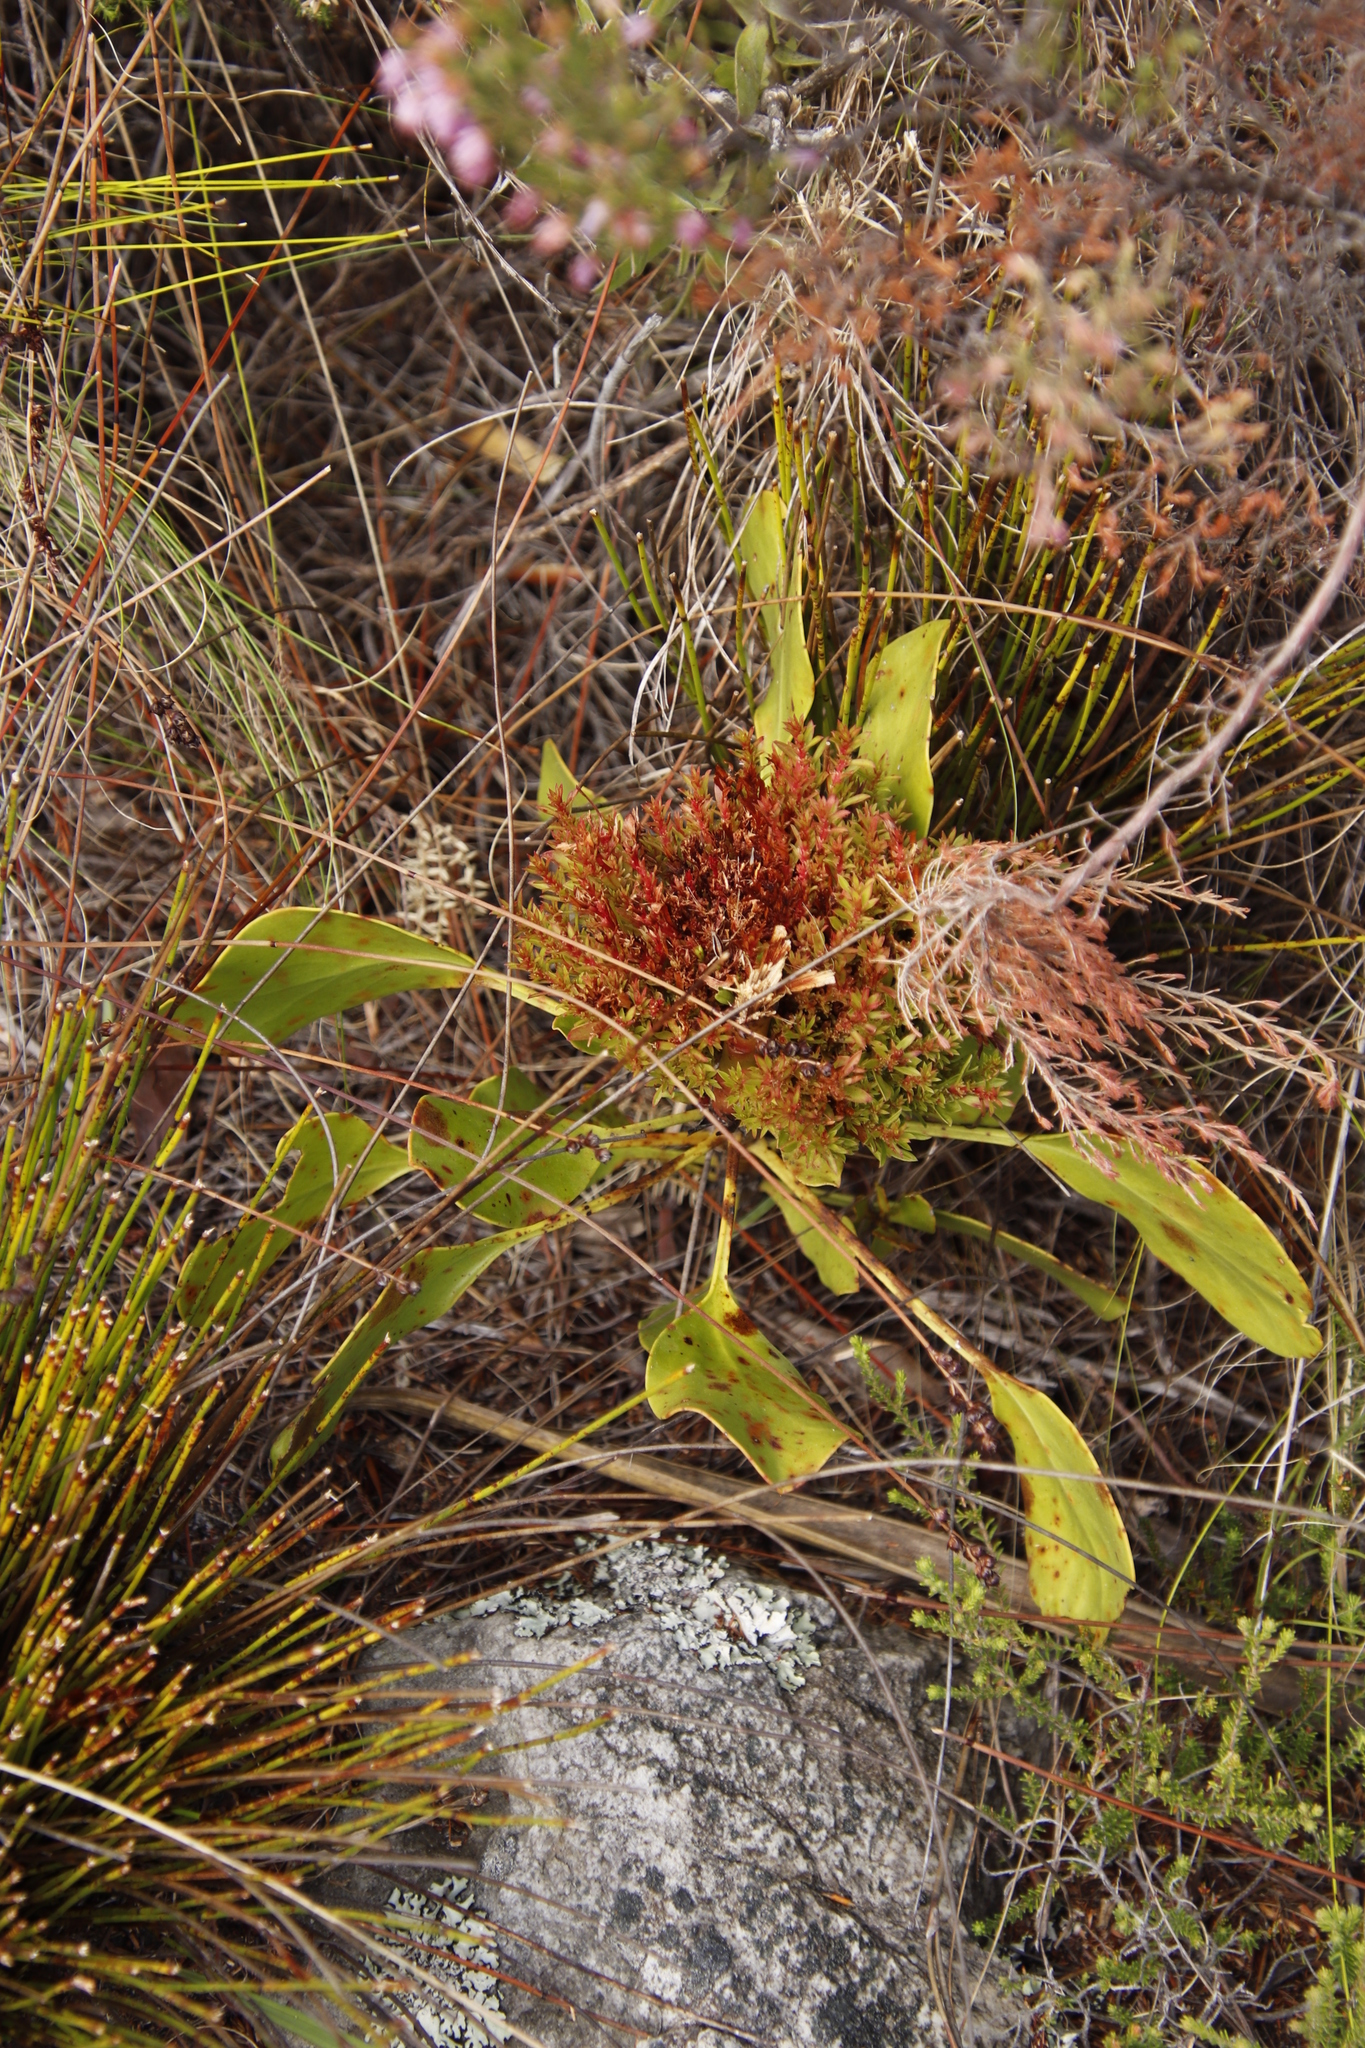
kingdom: Bacteria
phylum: Firmicutes
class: Bacilli
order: Acholeplasmatales
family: Acholeplasmataceae
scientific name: Acholeplasmataceae
